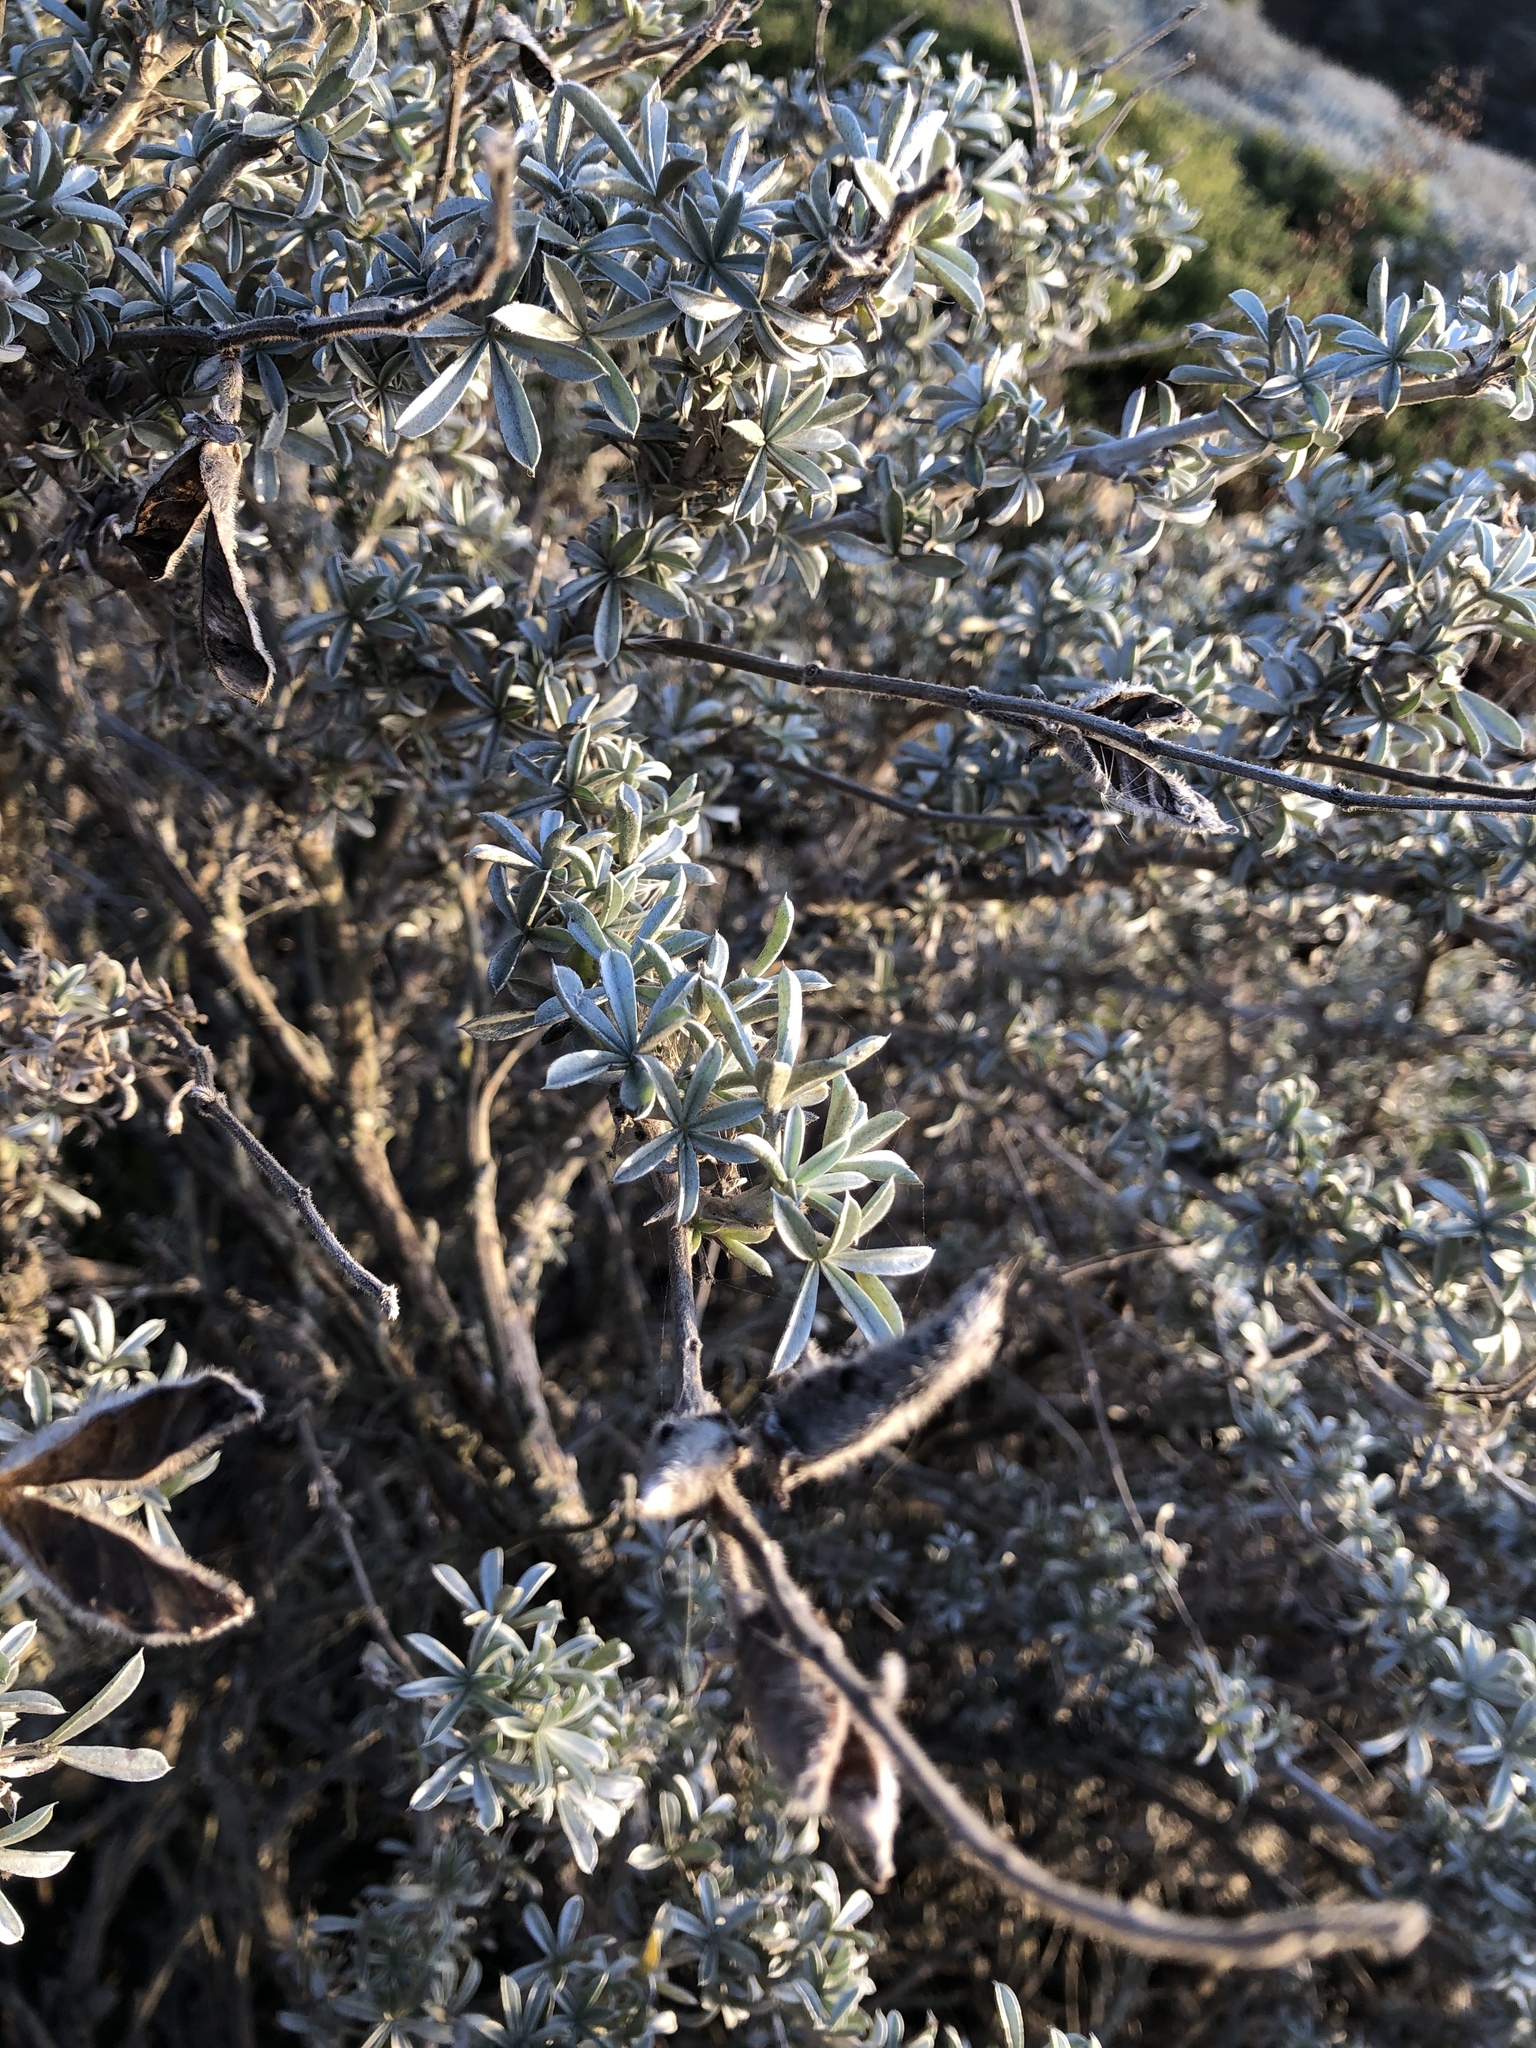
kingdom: Plantae
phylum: Tracheophyta
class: Magnoliopsida
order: Fabales
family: Fabaceae
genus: Lupinus
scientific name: Lupinus chamissonis
